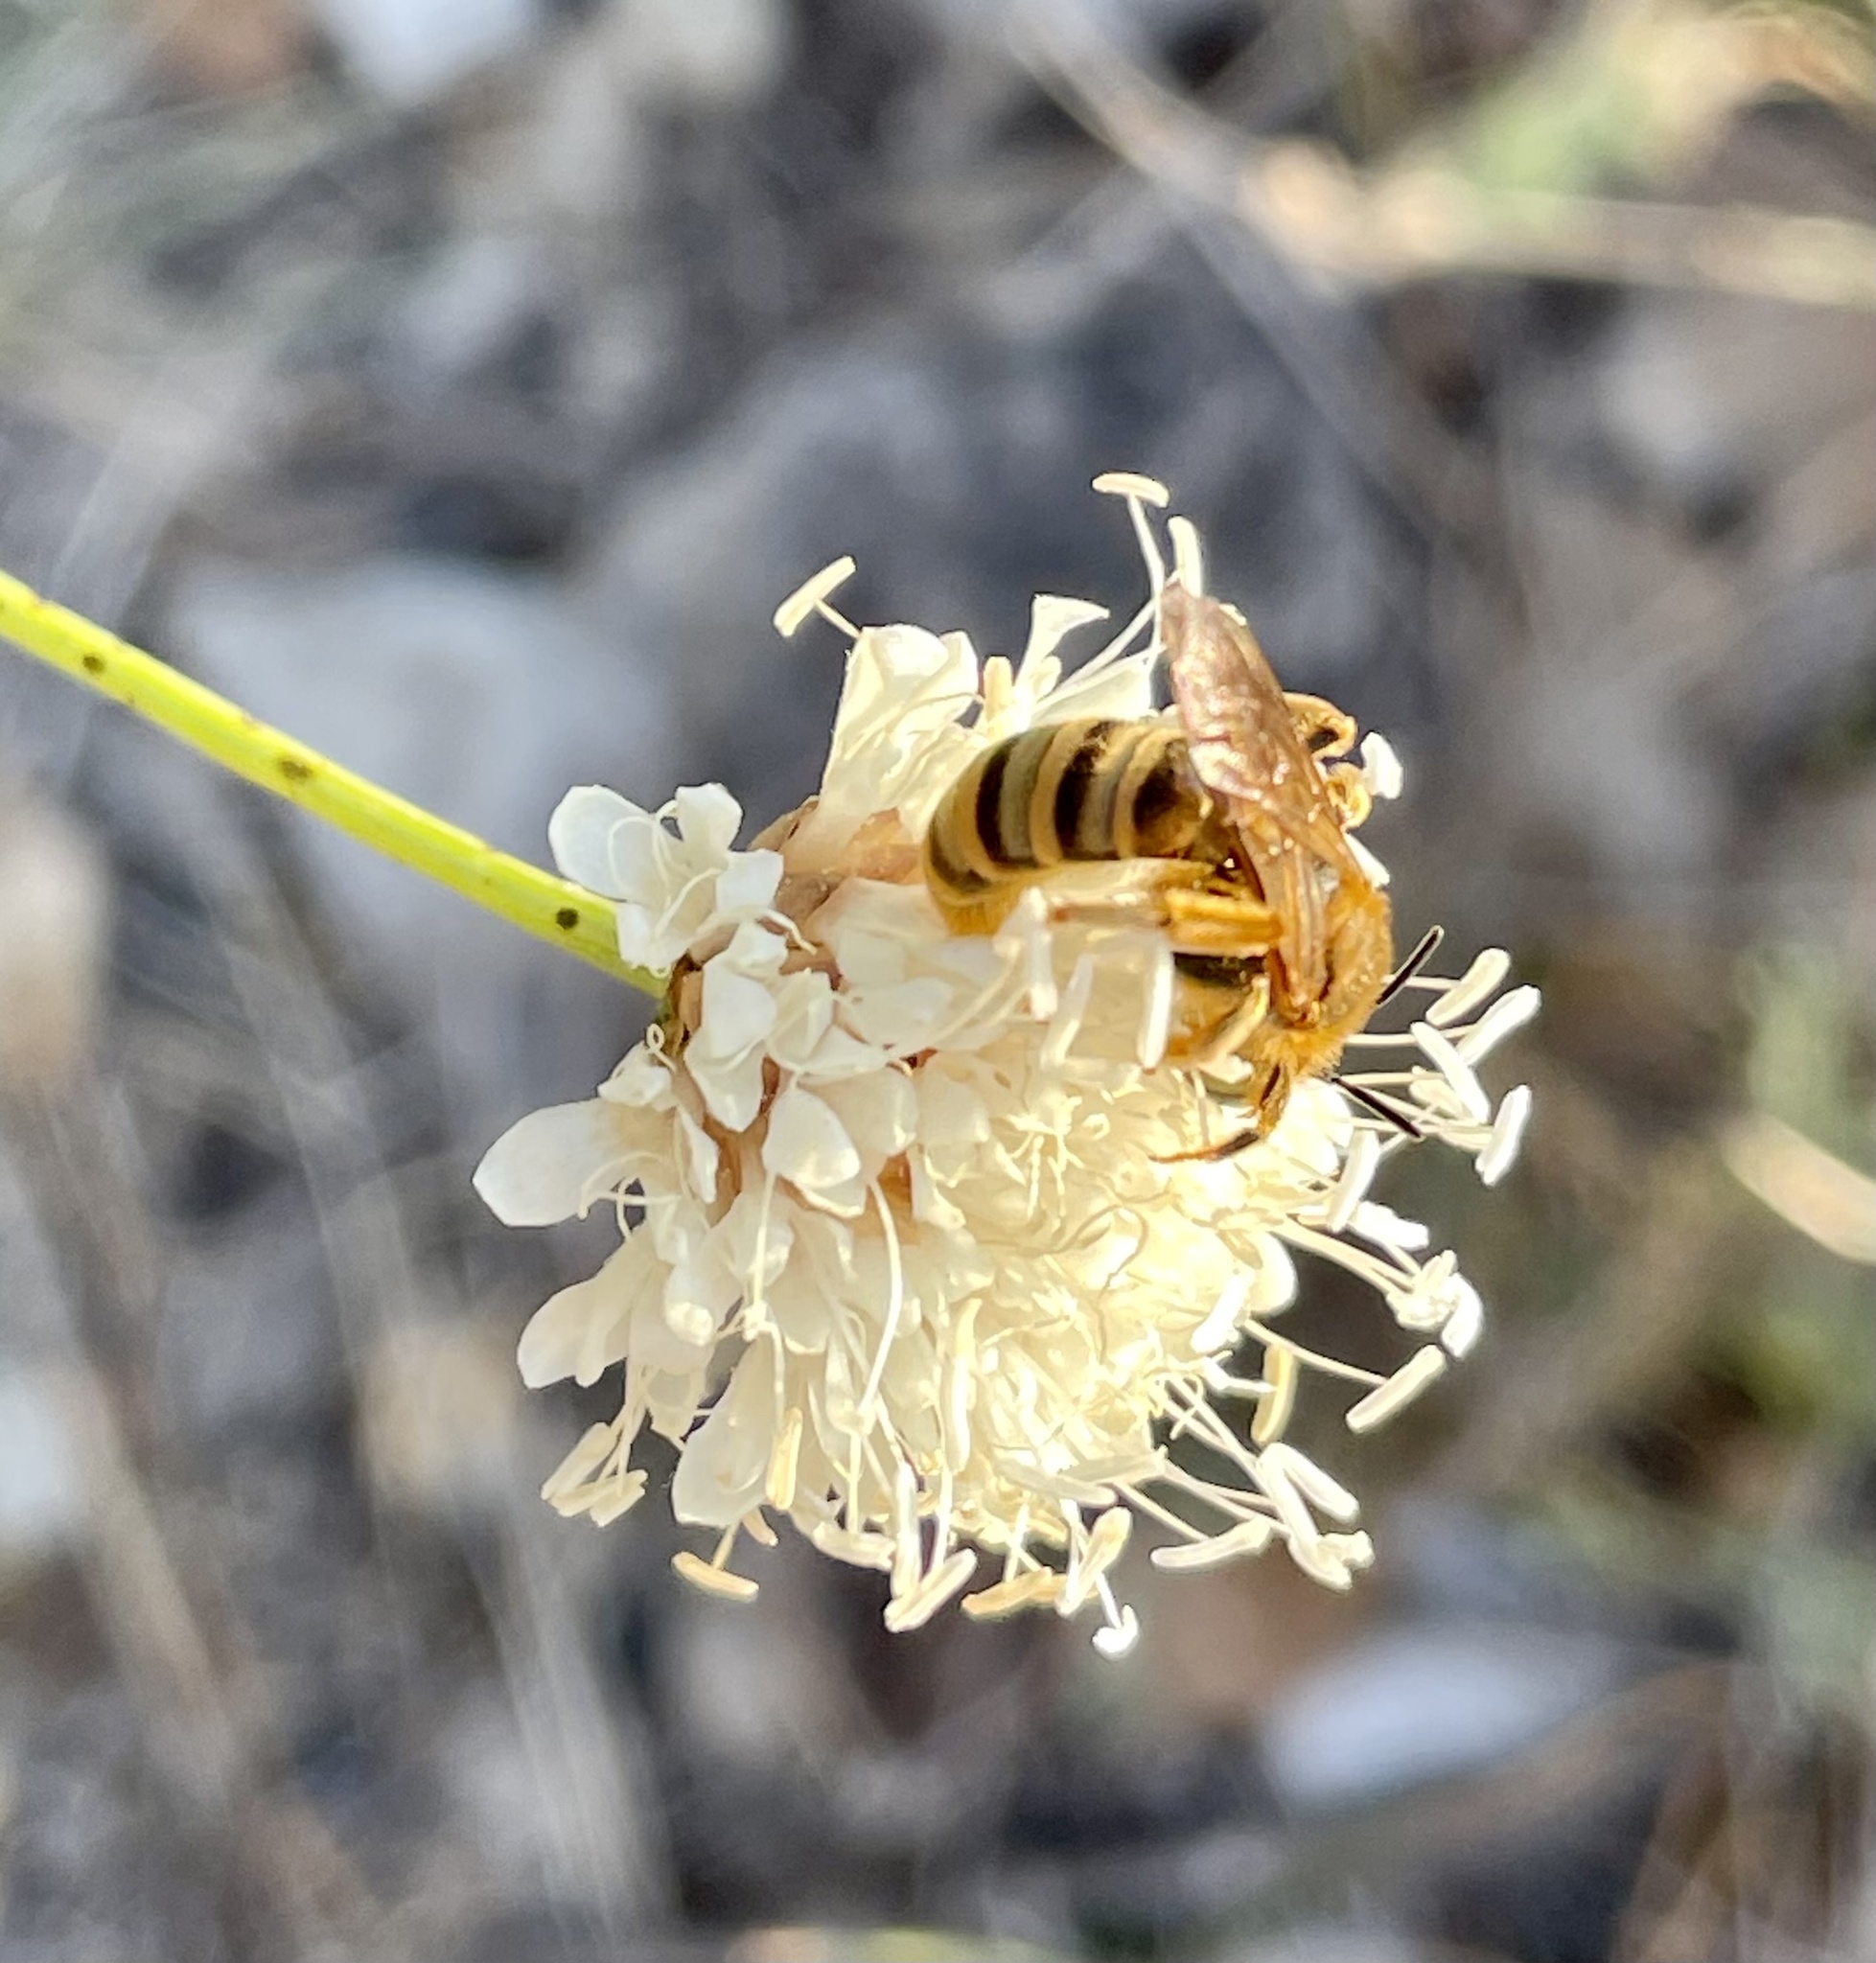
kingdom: Animalia
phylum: Arthropoda
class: Insecta
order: Hymenoptera
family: Halictidae
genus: Halictus
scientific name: Halictus scabiosae
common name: Great banded furrow bee
